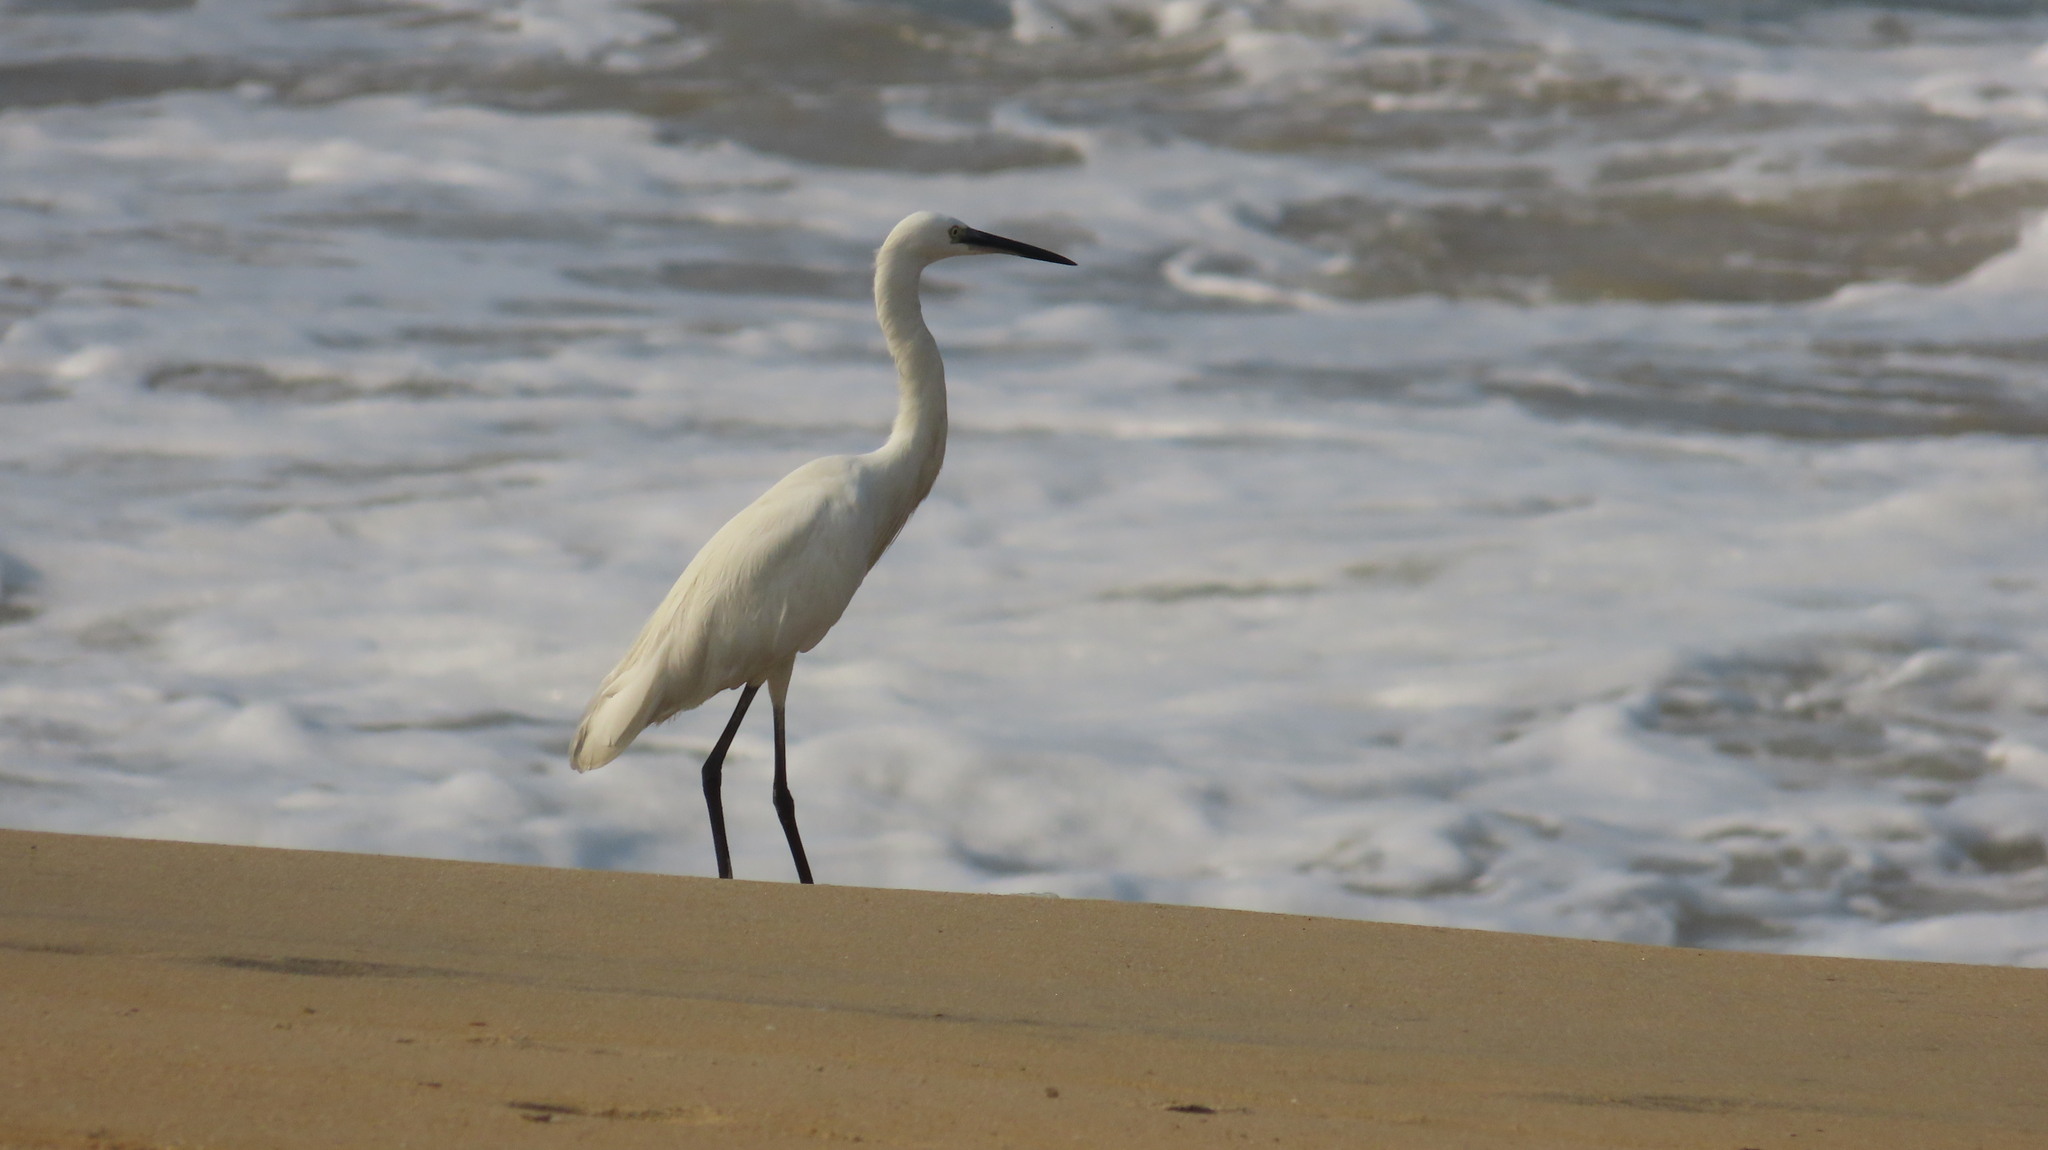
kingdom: Animalia
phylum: Chordata
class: Aves
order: Pelecaniformes
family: Ardeidae
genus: Egretta
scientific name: Egretta garzetta
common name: Little egret
